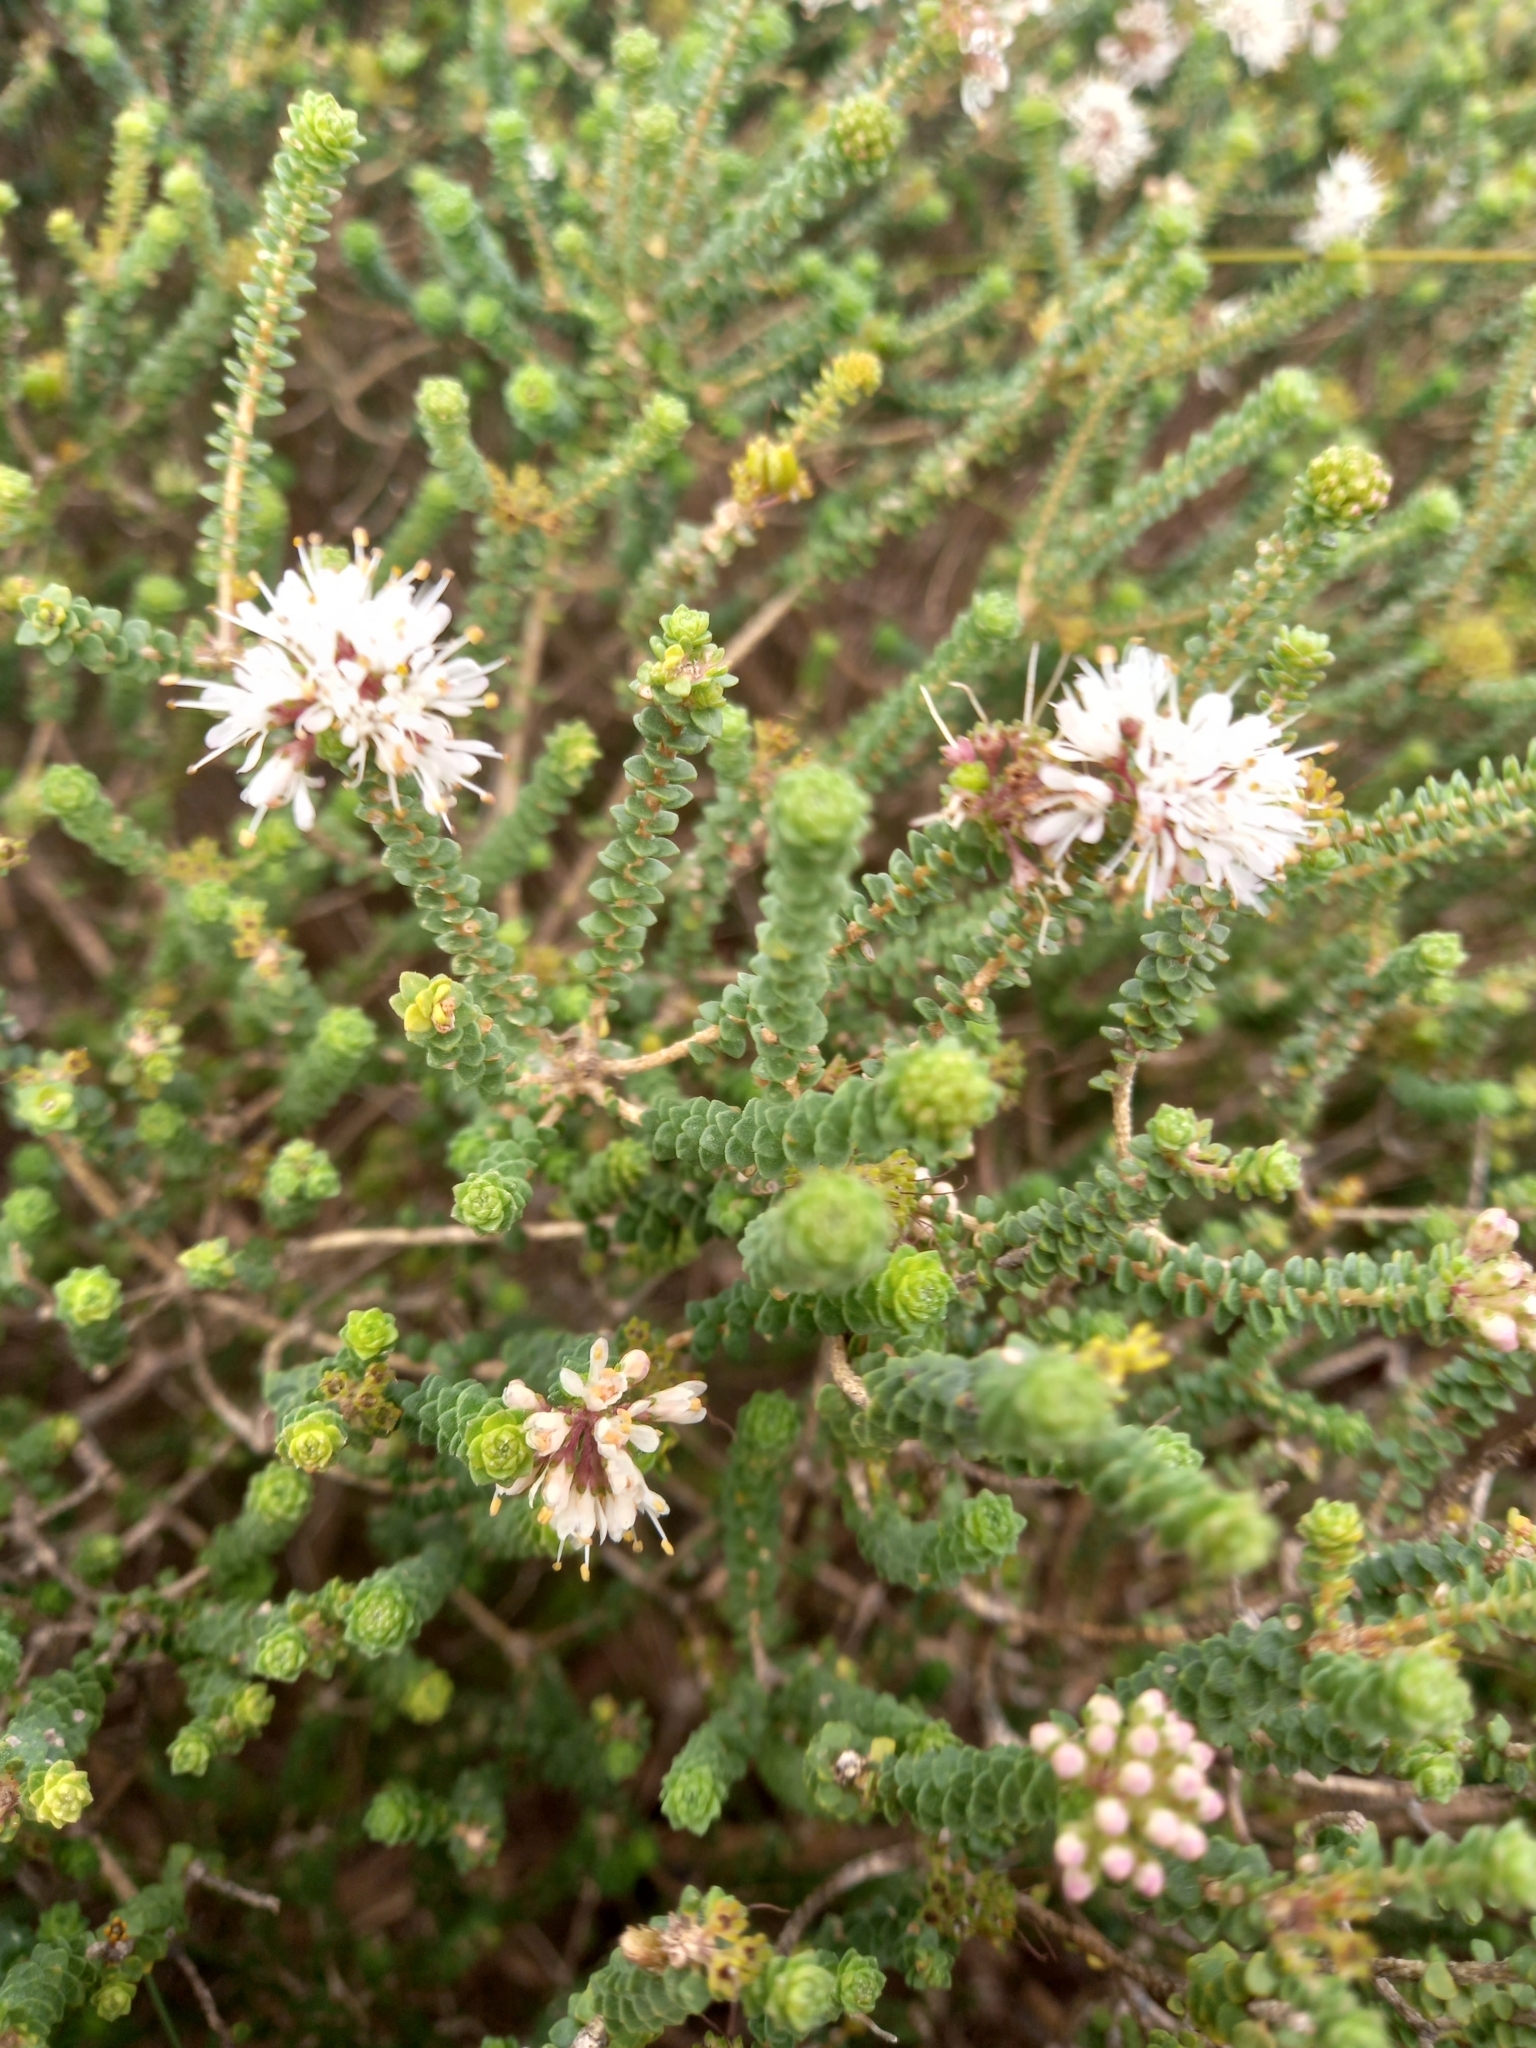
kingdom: Plantae
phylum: Tracheophyta
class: Magnoliopsida
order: Sapindales
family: Rutaceae
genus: Agathosma
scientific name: Agathosma muirii
